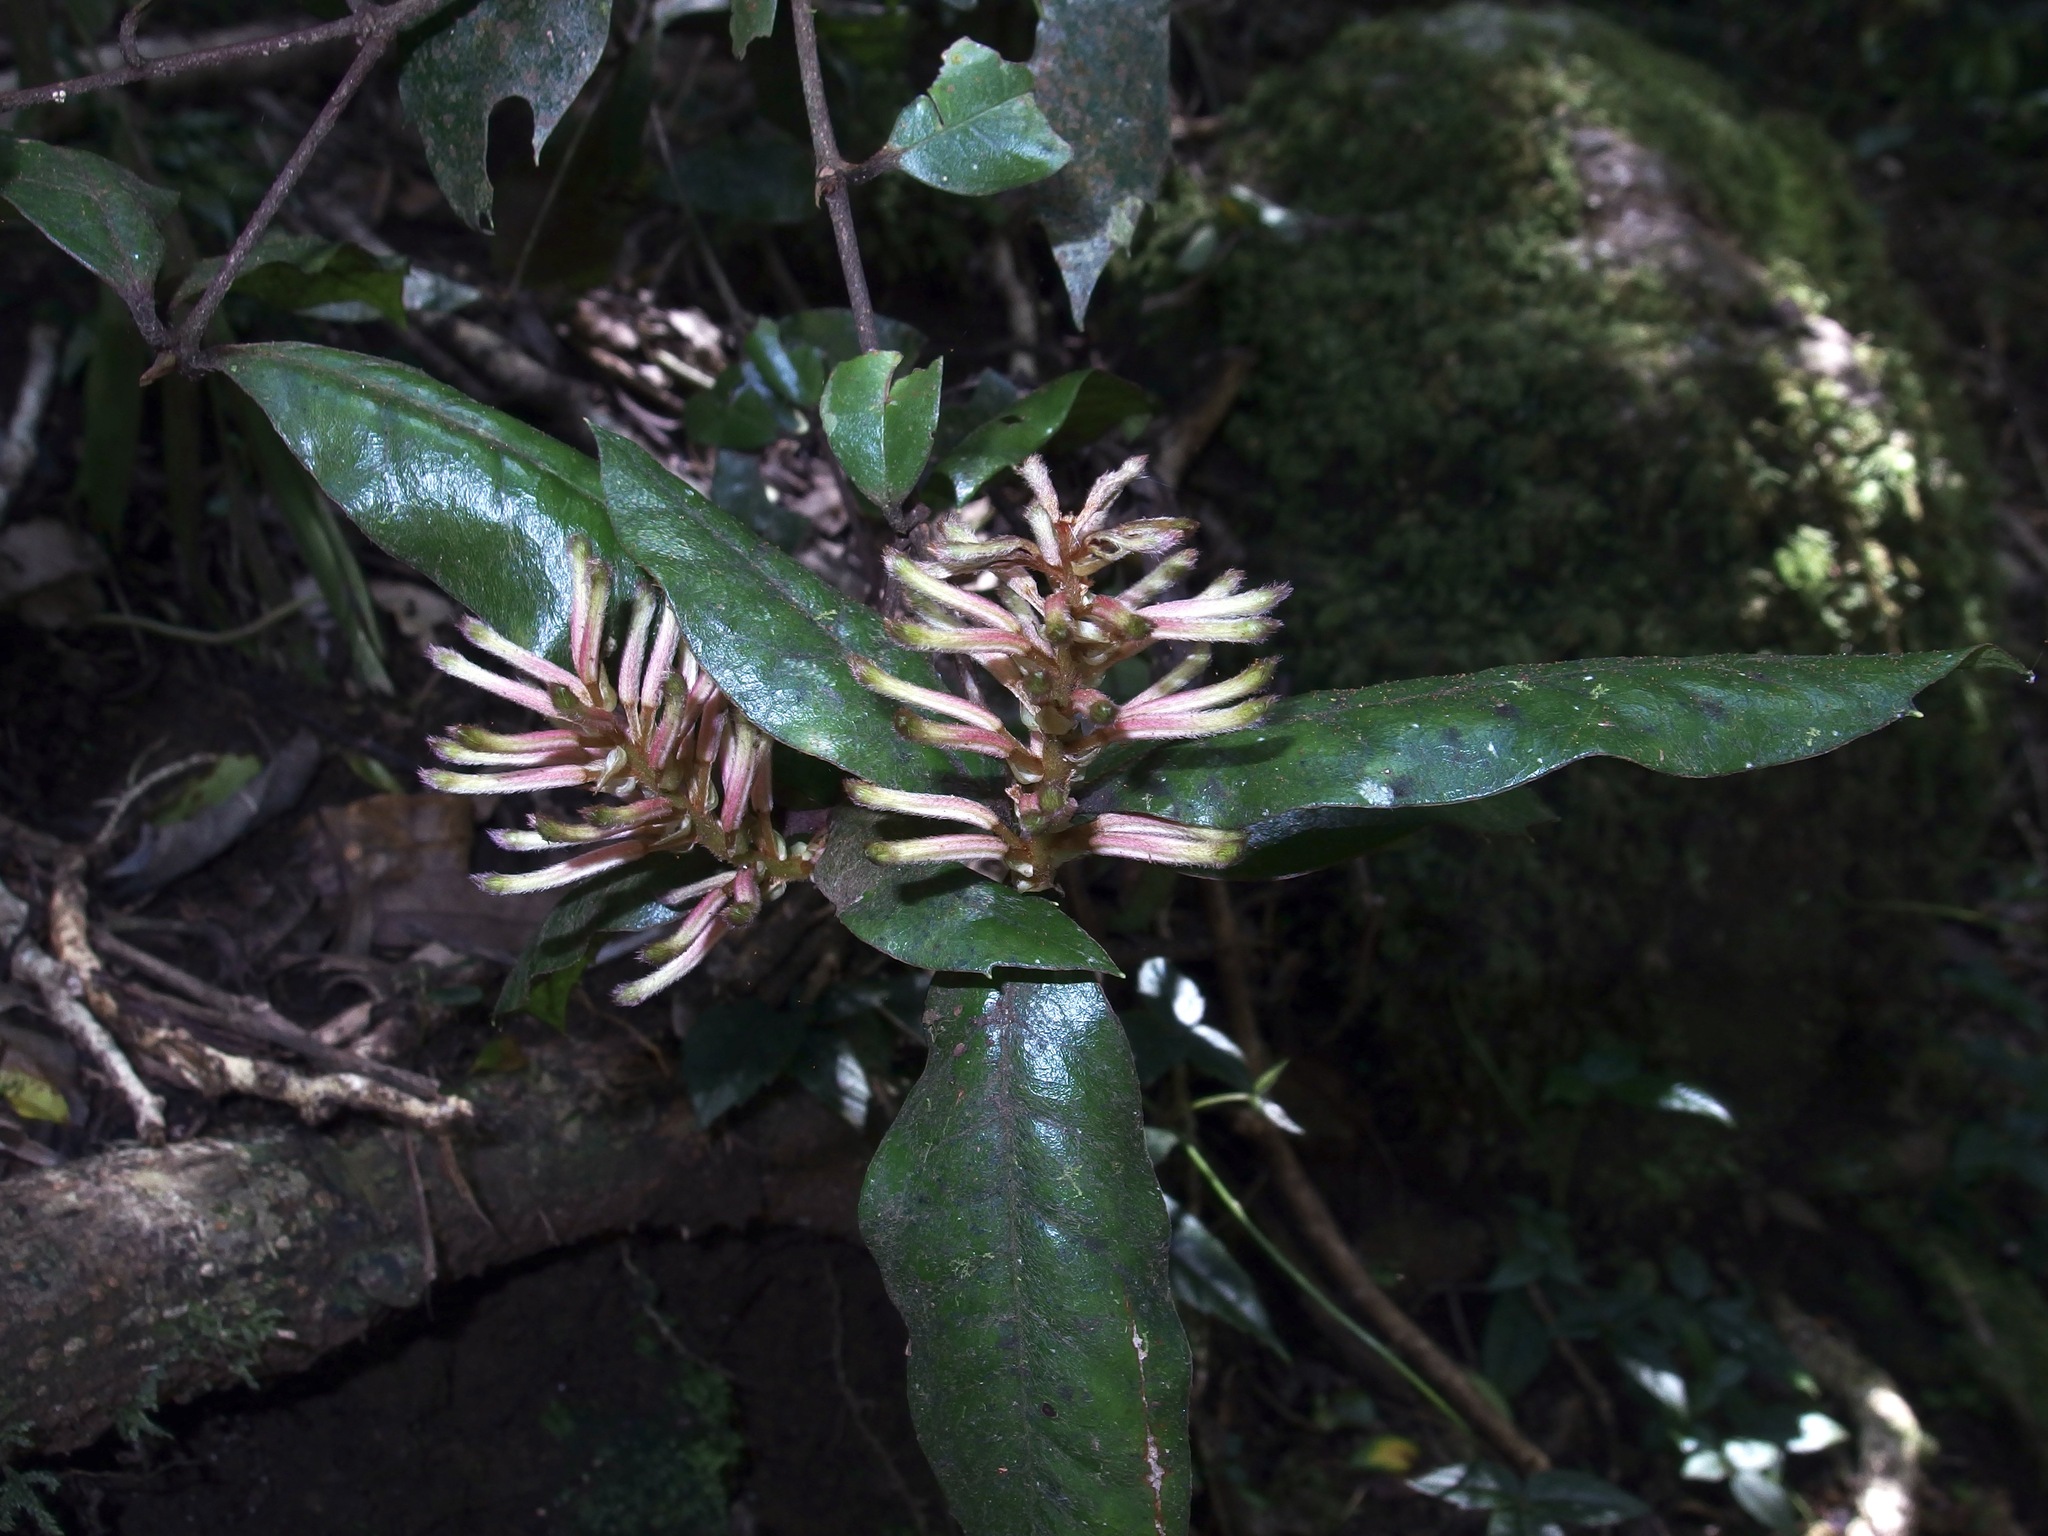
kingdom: Plantae
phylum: Tracheophyta
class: Magnoliopsida
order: Proteales
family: Proteaceae
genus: Triunia
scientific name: Triunia youngiana
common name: Rednut
